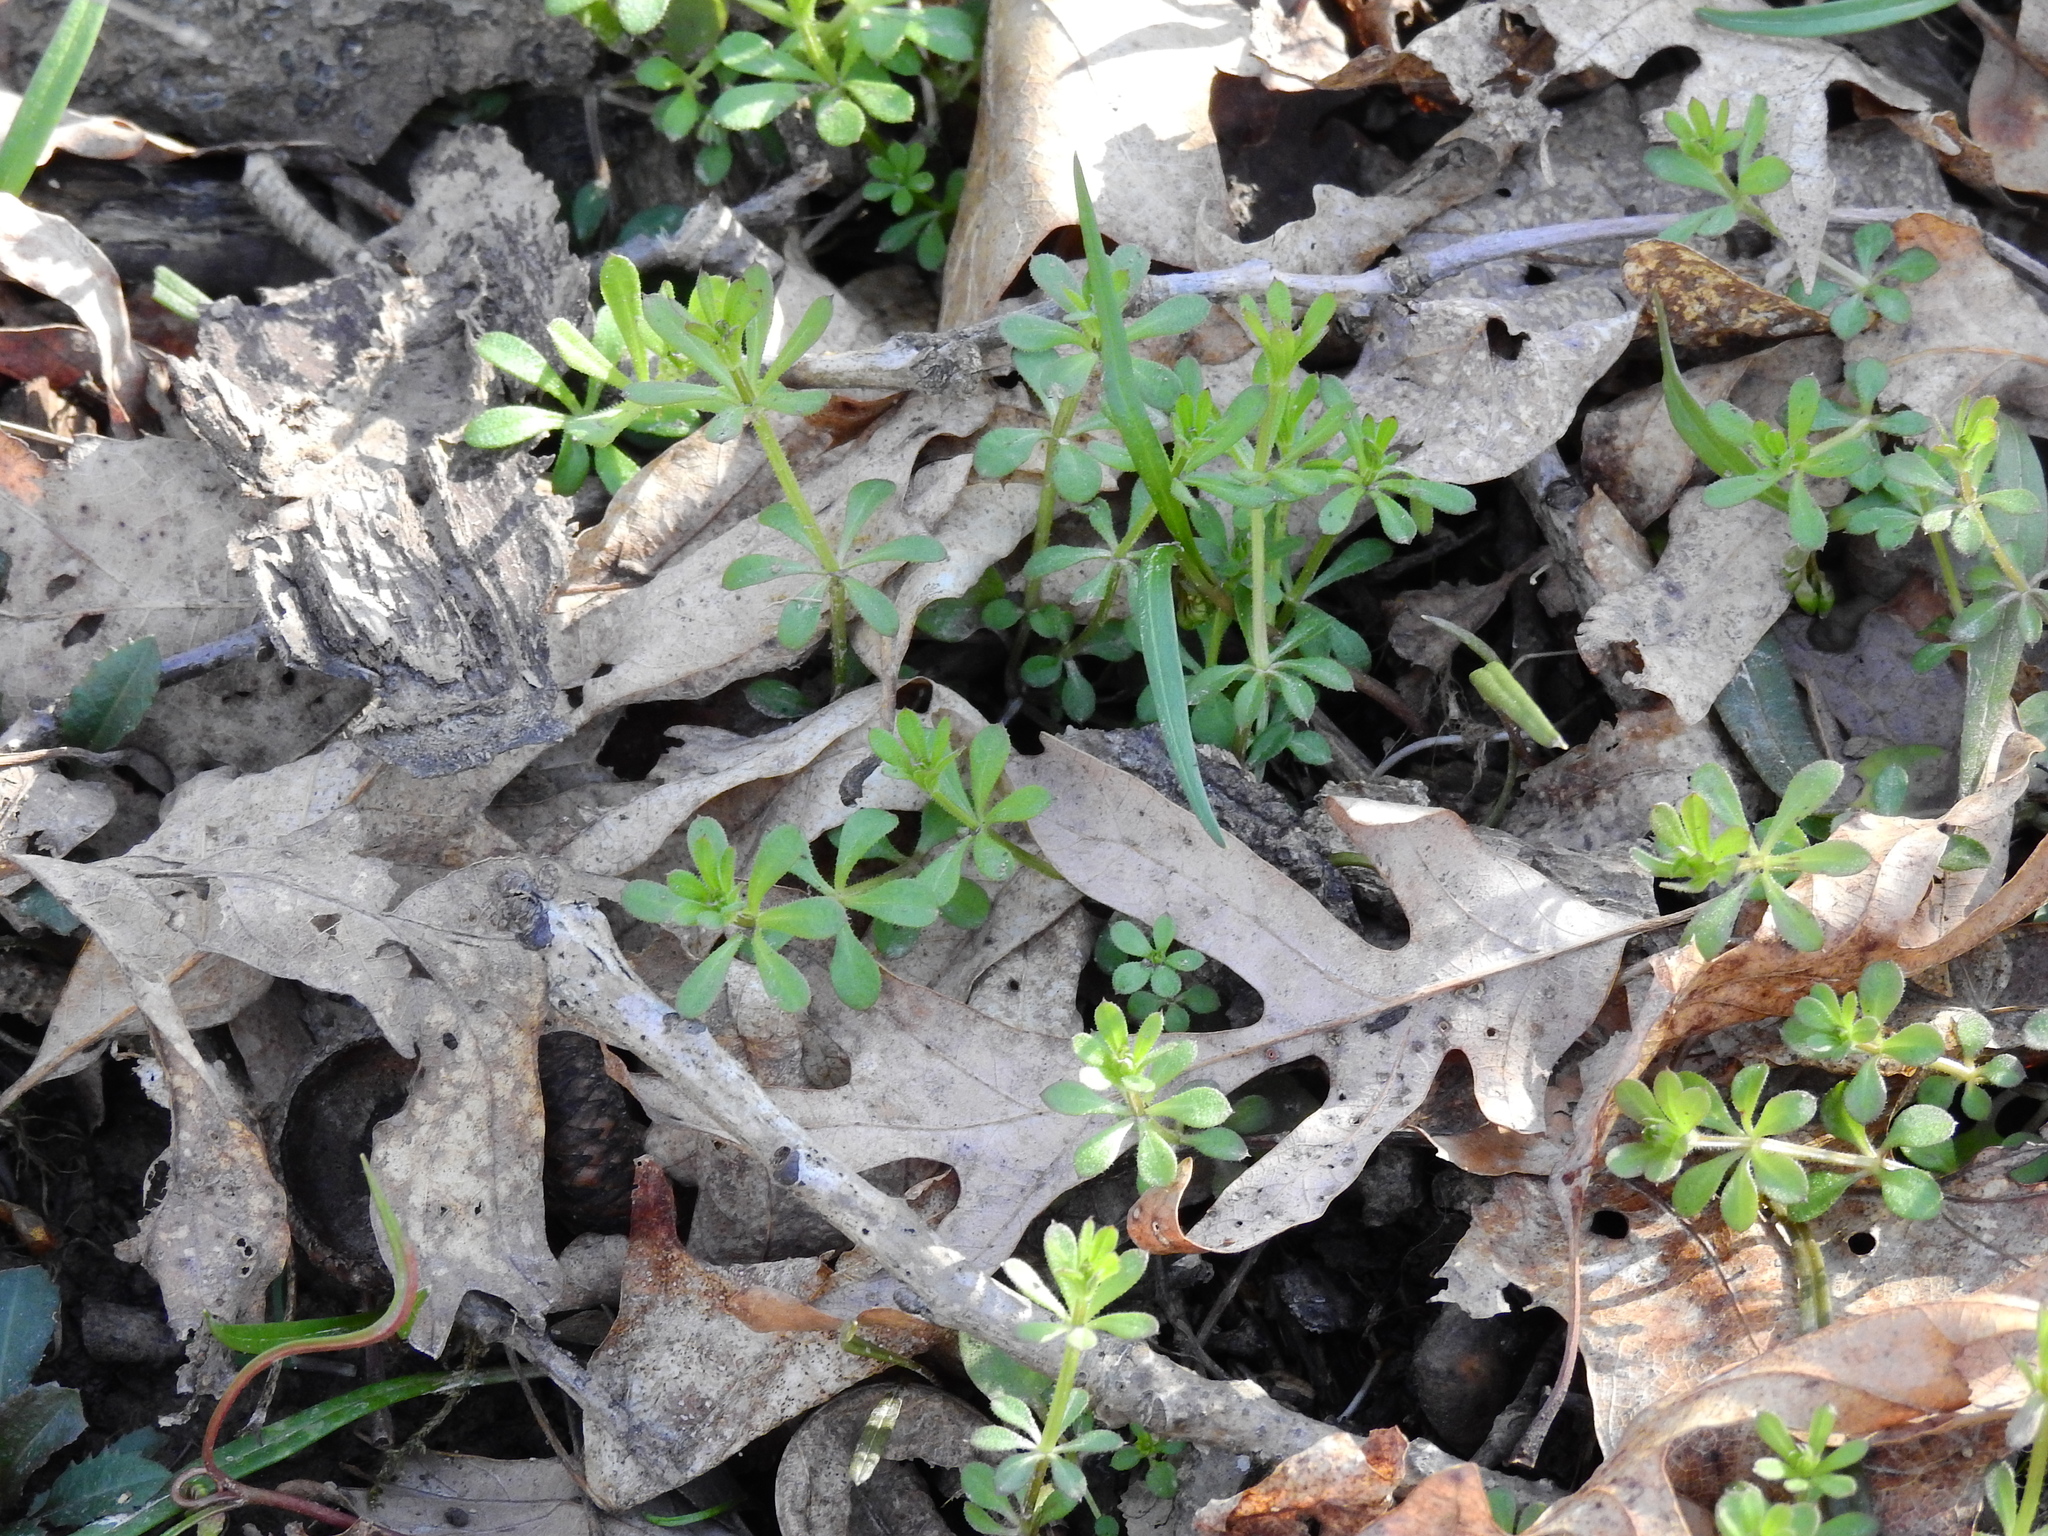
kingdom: Plantae
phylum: Tracheophyta
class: Magnoliopsida
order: Gentianales
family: Rubiaceae
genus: Galium
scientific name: Galium aparine
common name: Cleavers
